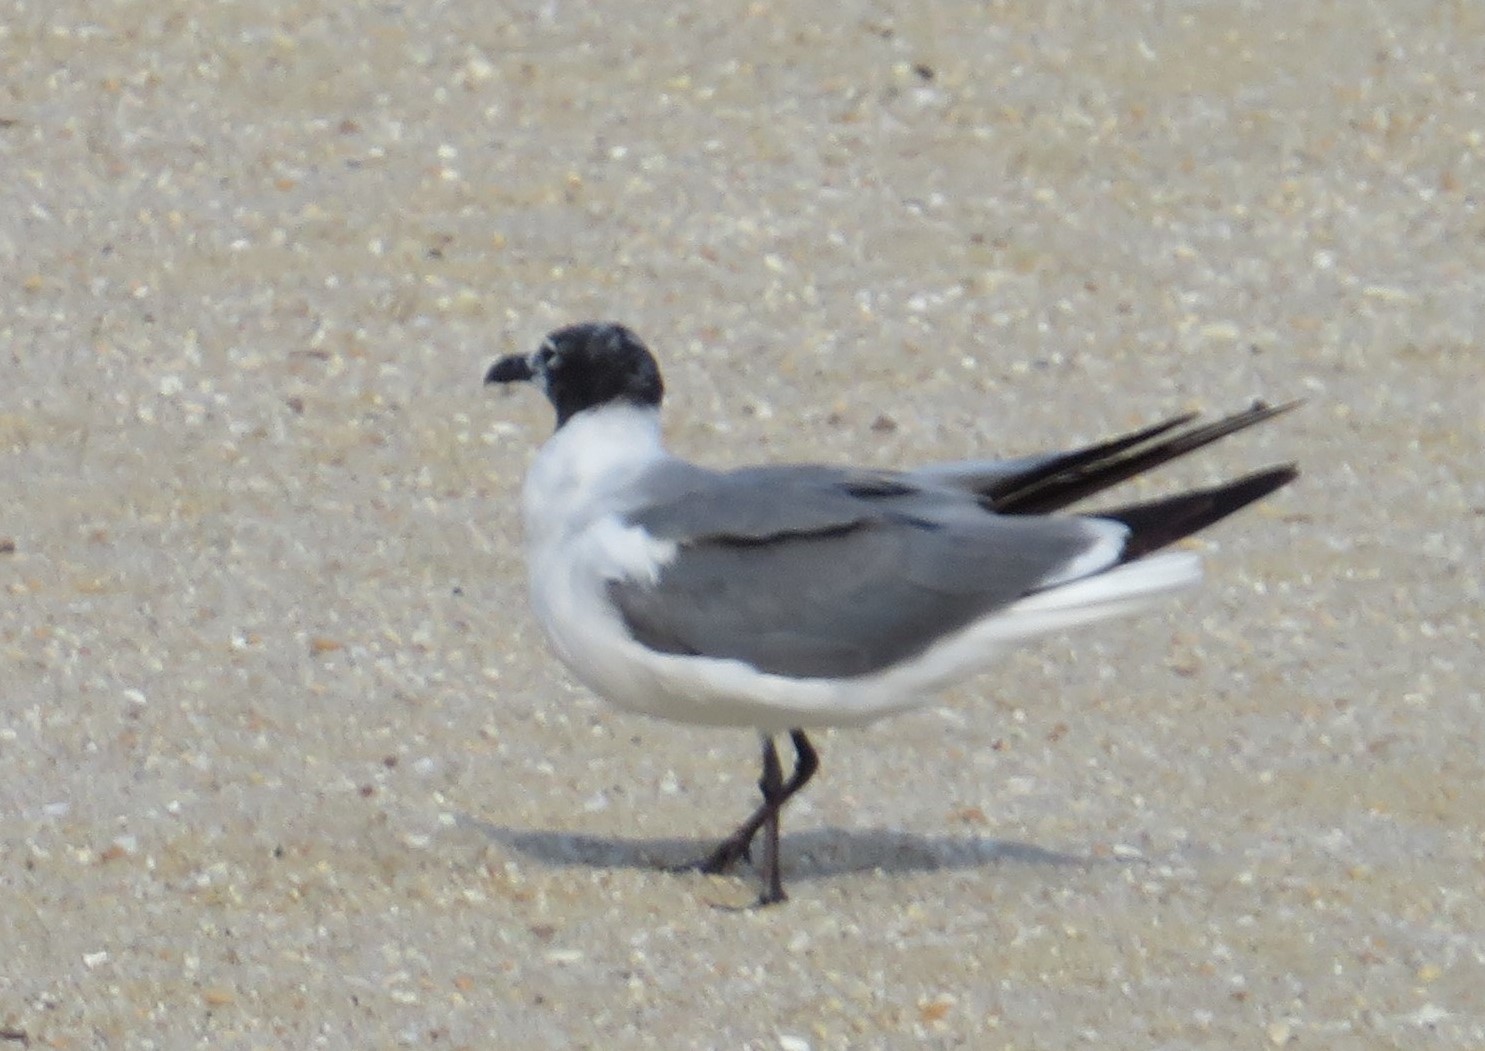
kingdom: Animalia
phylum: Chordata
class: Aves
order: Charadriiformes
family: Laridae
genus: Leucophaeus
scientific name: Leucophaeus atricilla
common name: Laughing gull
